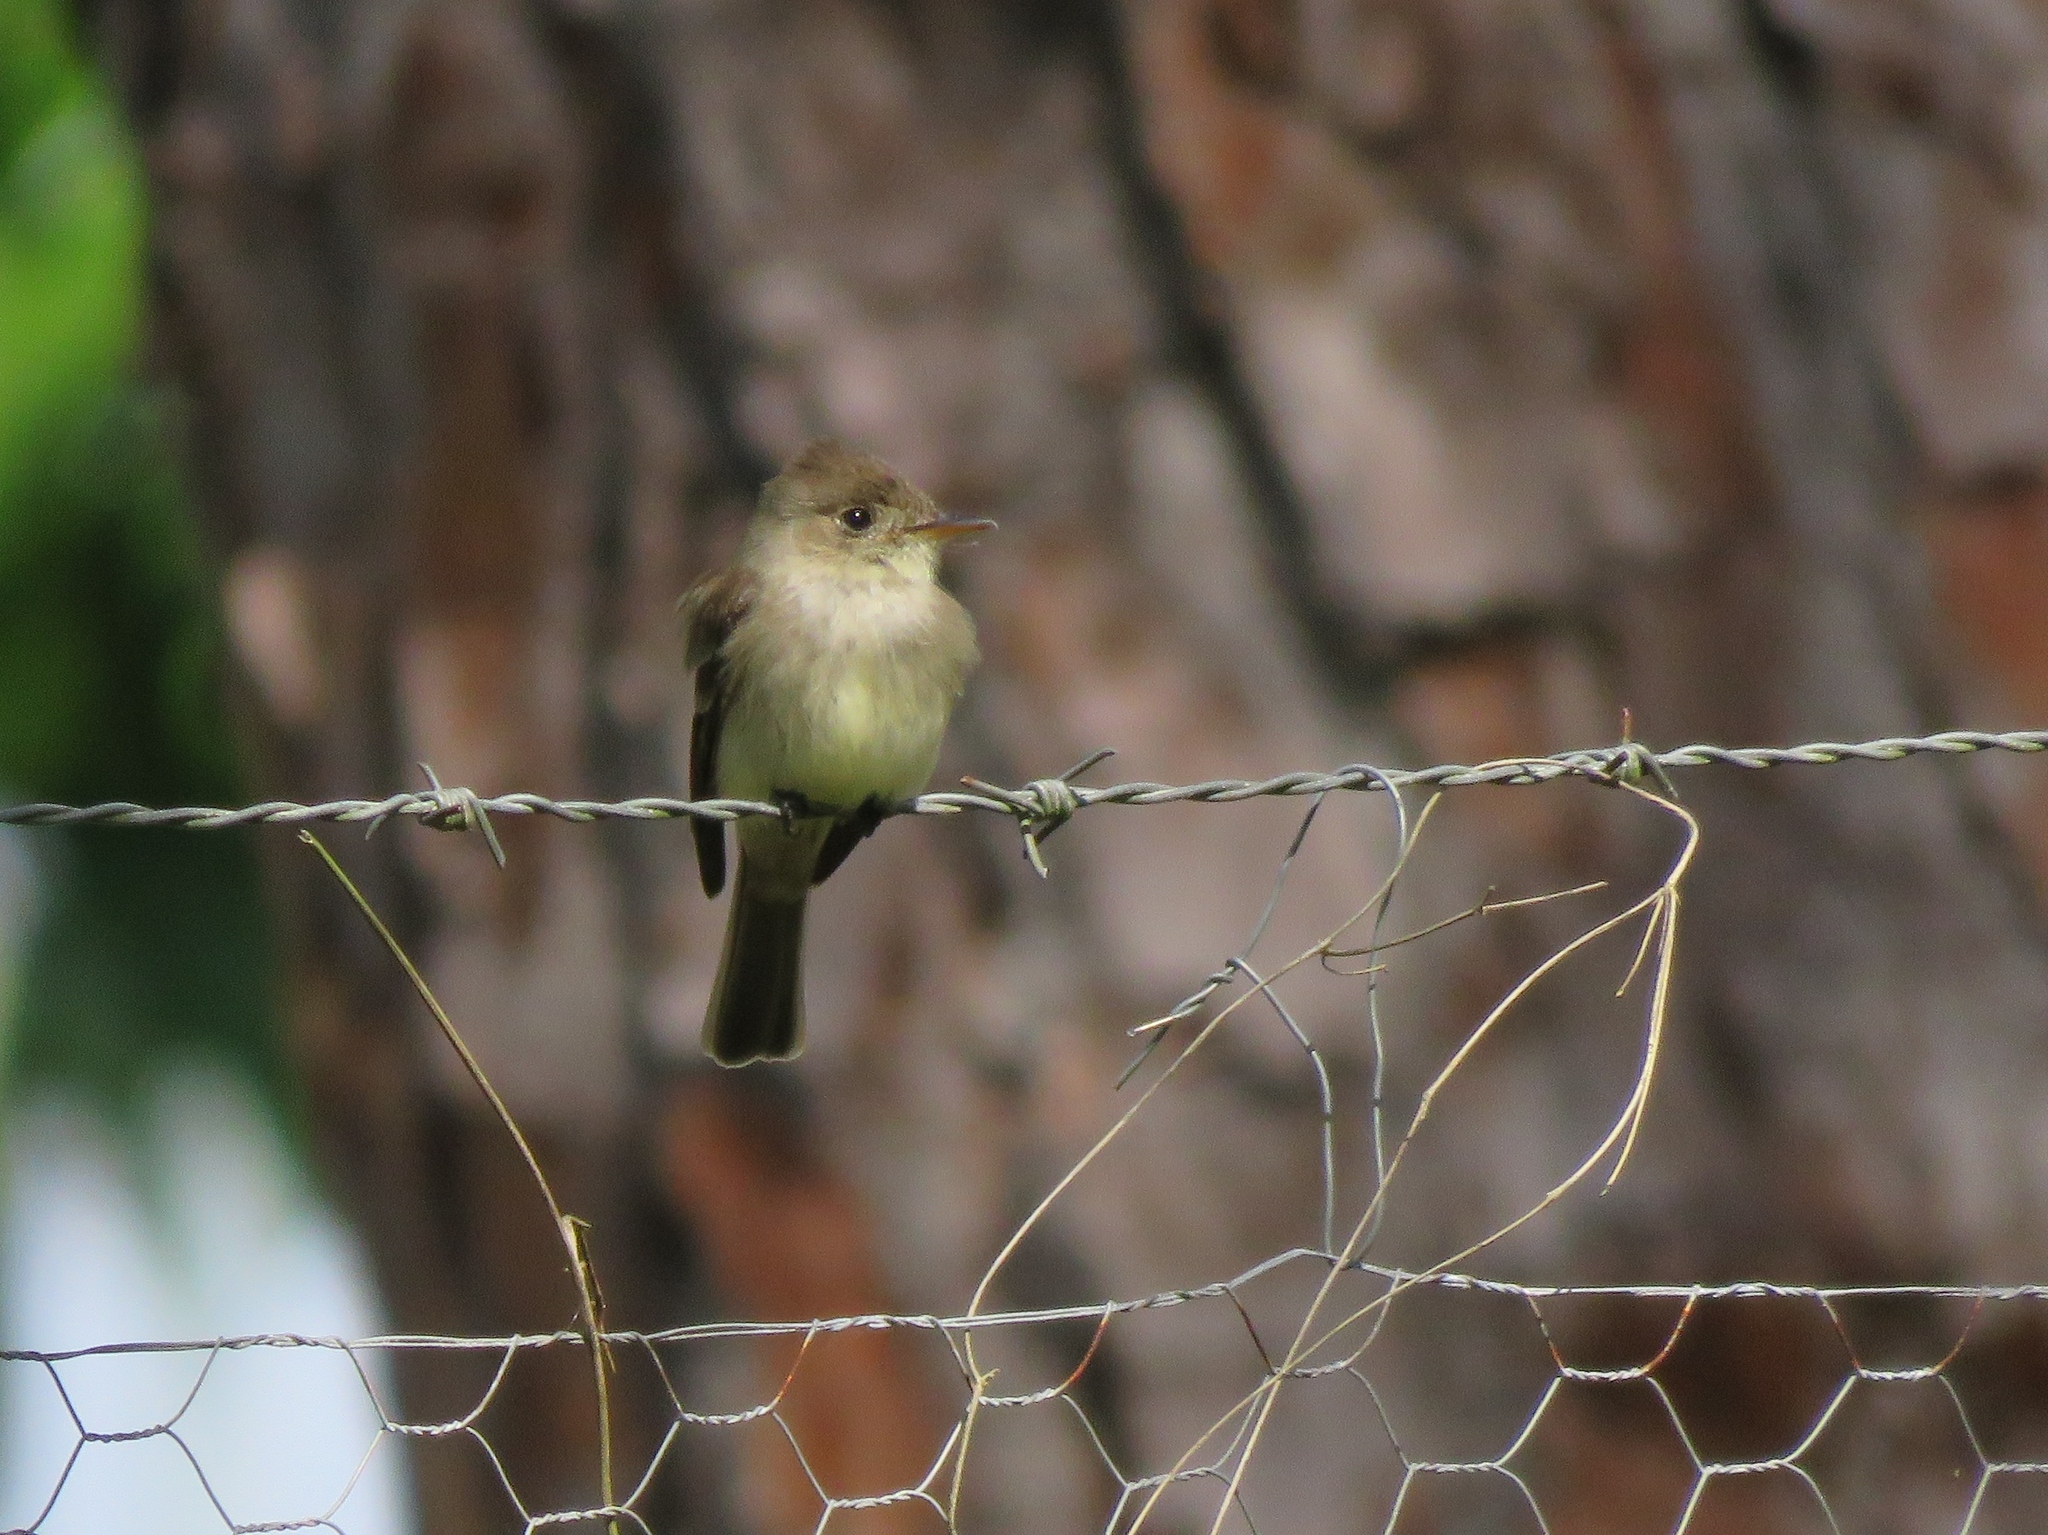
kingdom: Animalia
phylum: Chordata
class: Aves
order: Passeriformes
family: Tyrannidae
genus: Empidonax
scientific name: Empidonax traillii
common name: Willow flycatcher
